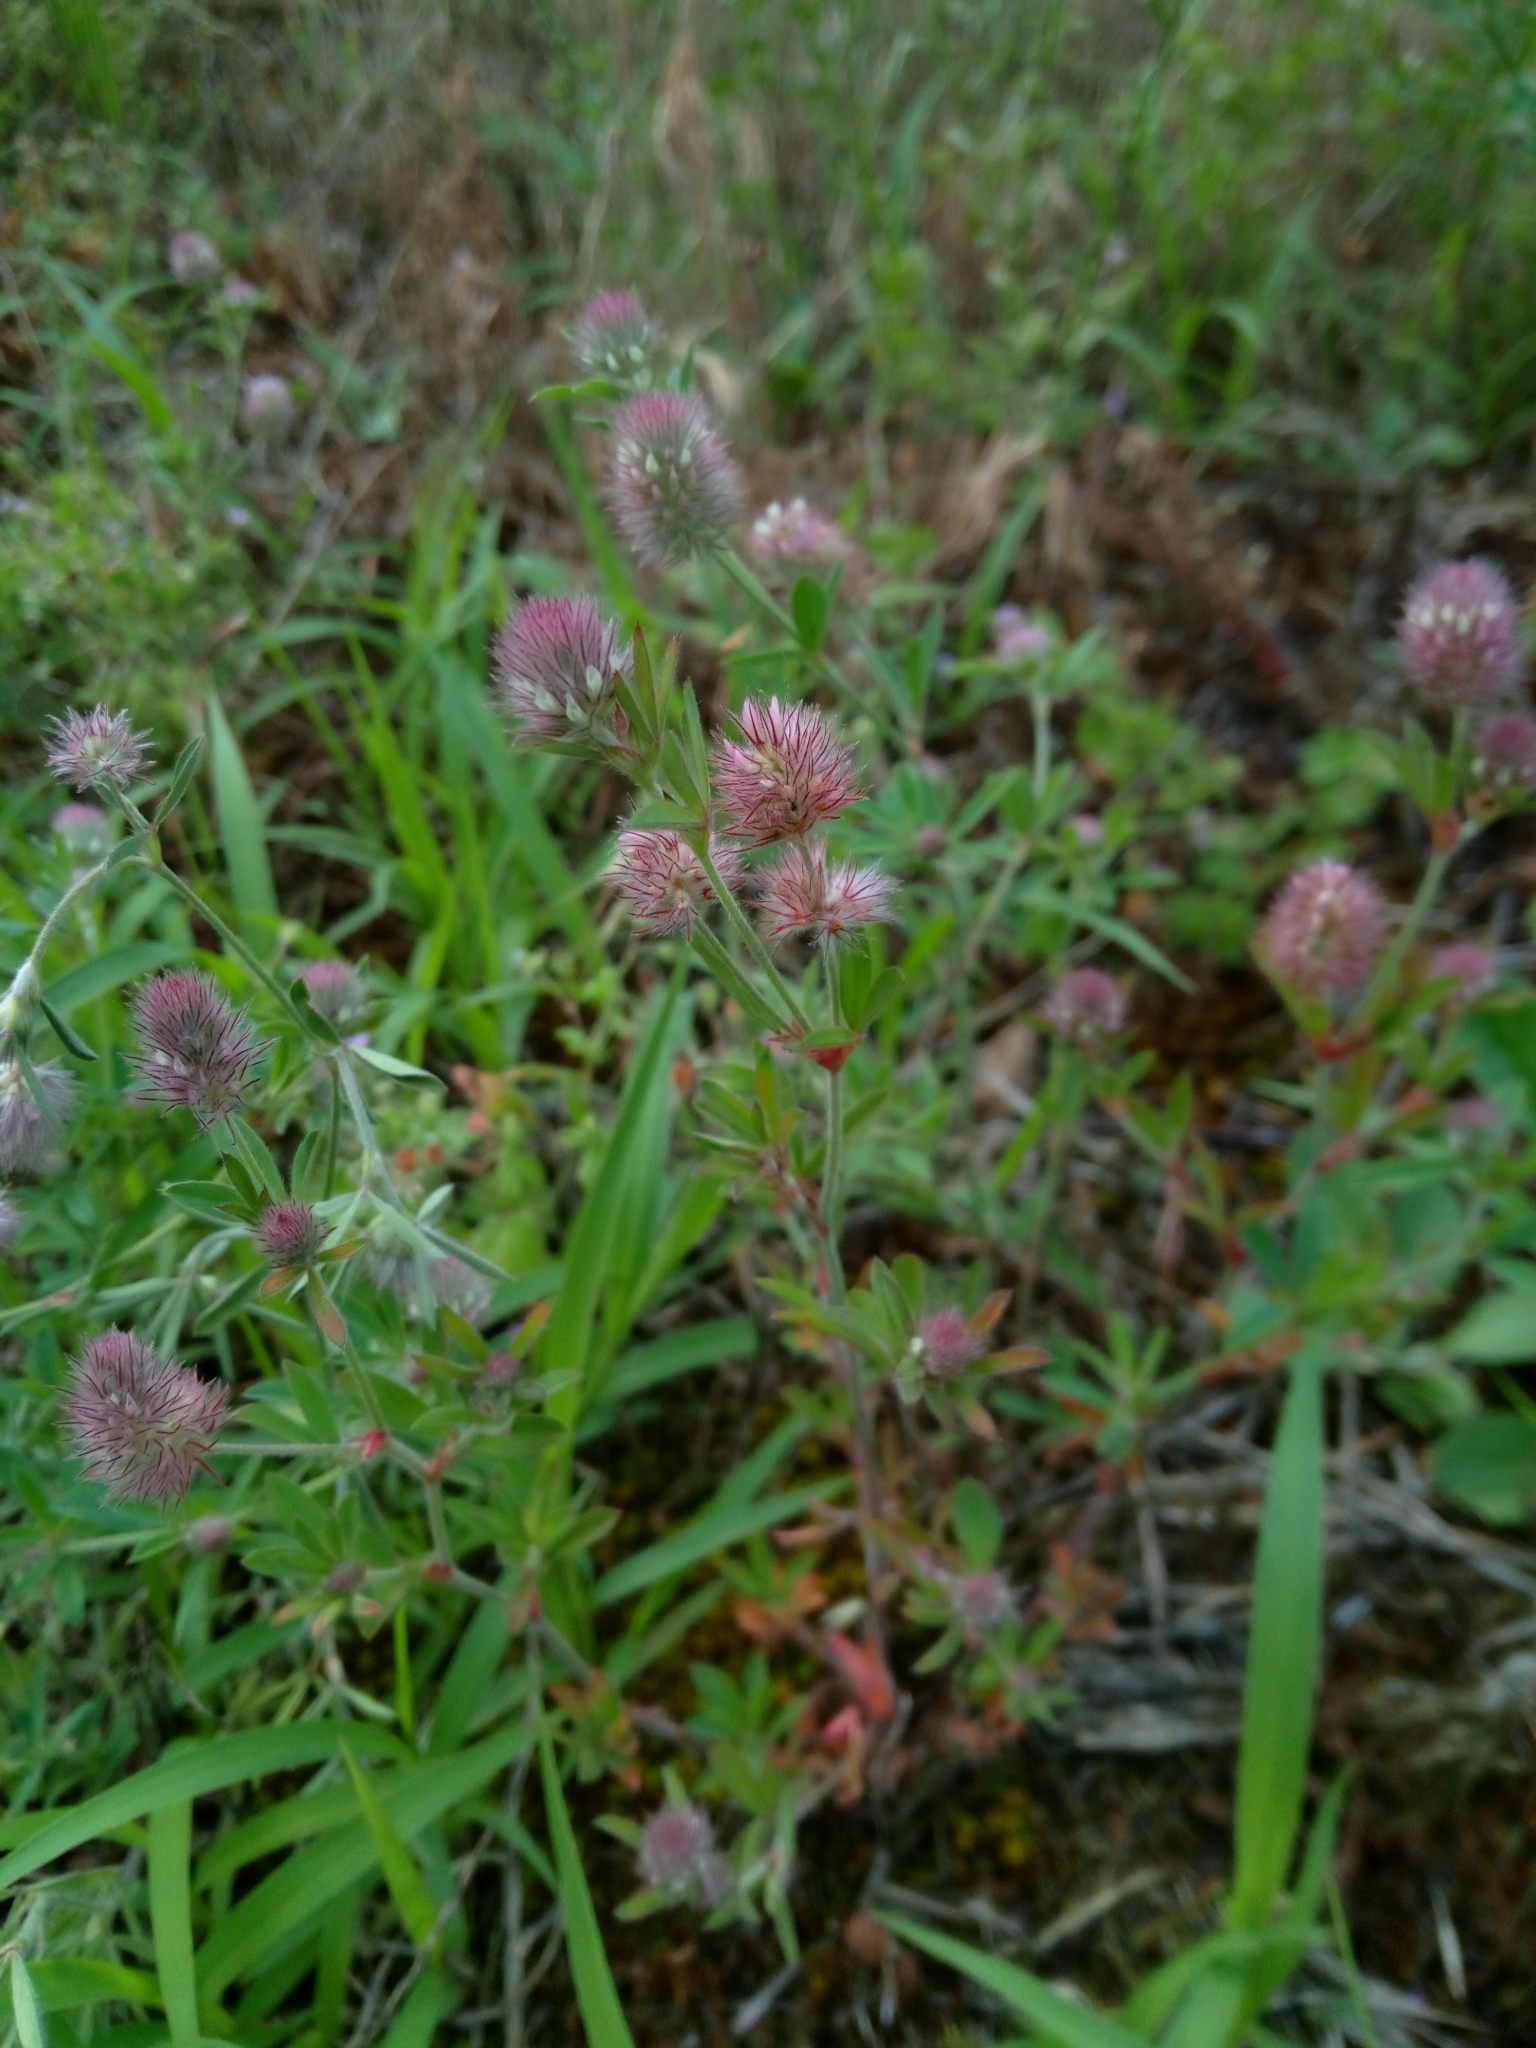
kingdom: Plantae
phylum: Tracheophyta
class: Magnoliopsida
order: Fabales
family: Fabaceae
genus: Trifolium
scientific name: Trifolium arvense
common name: Hare's-foot clover
